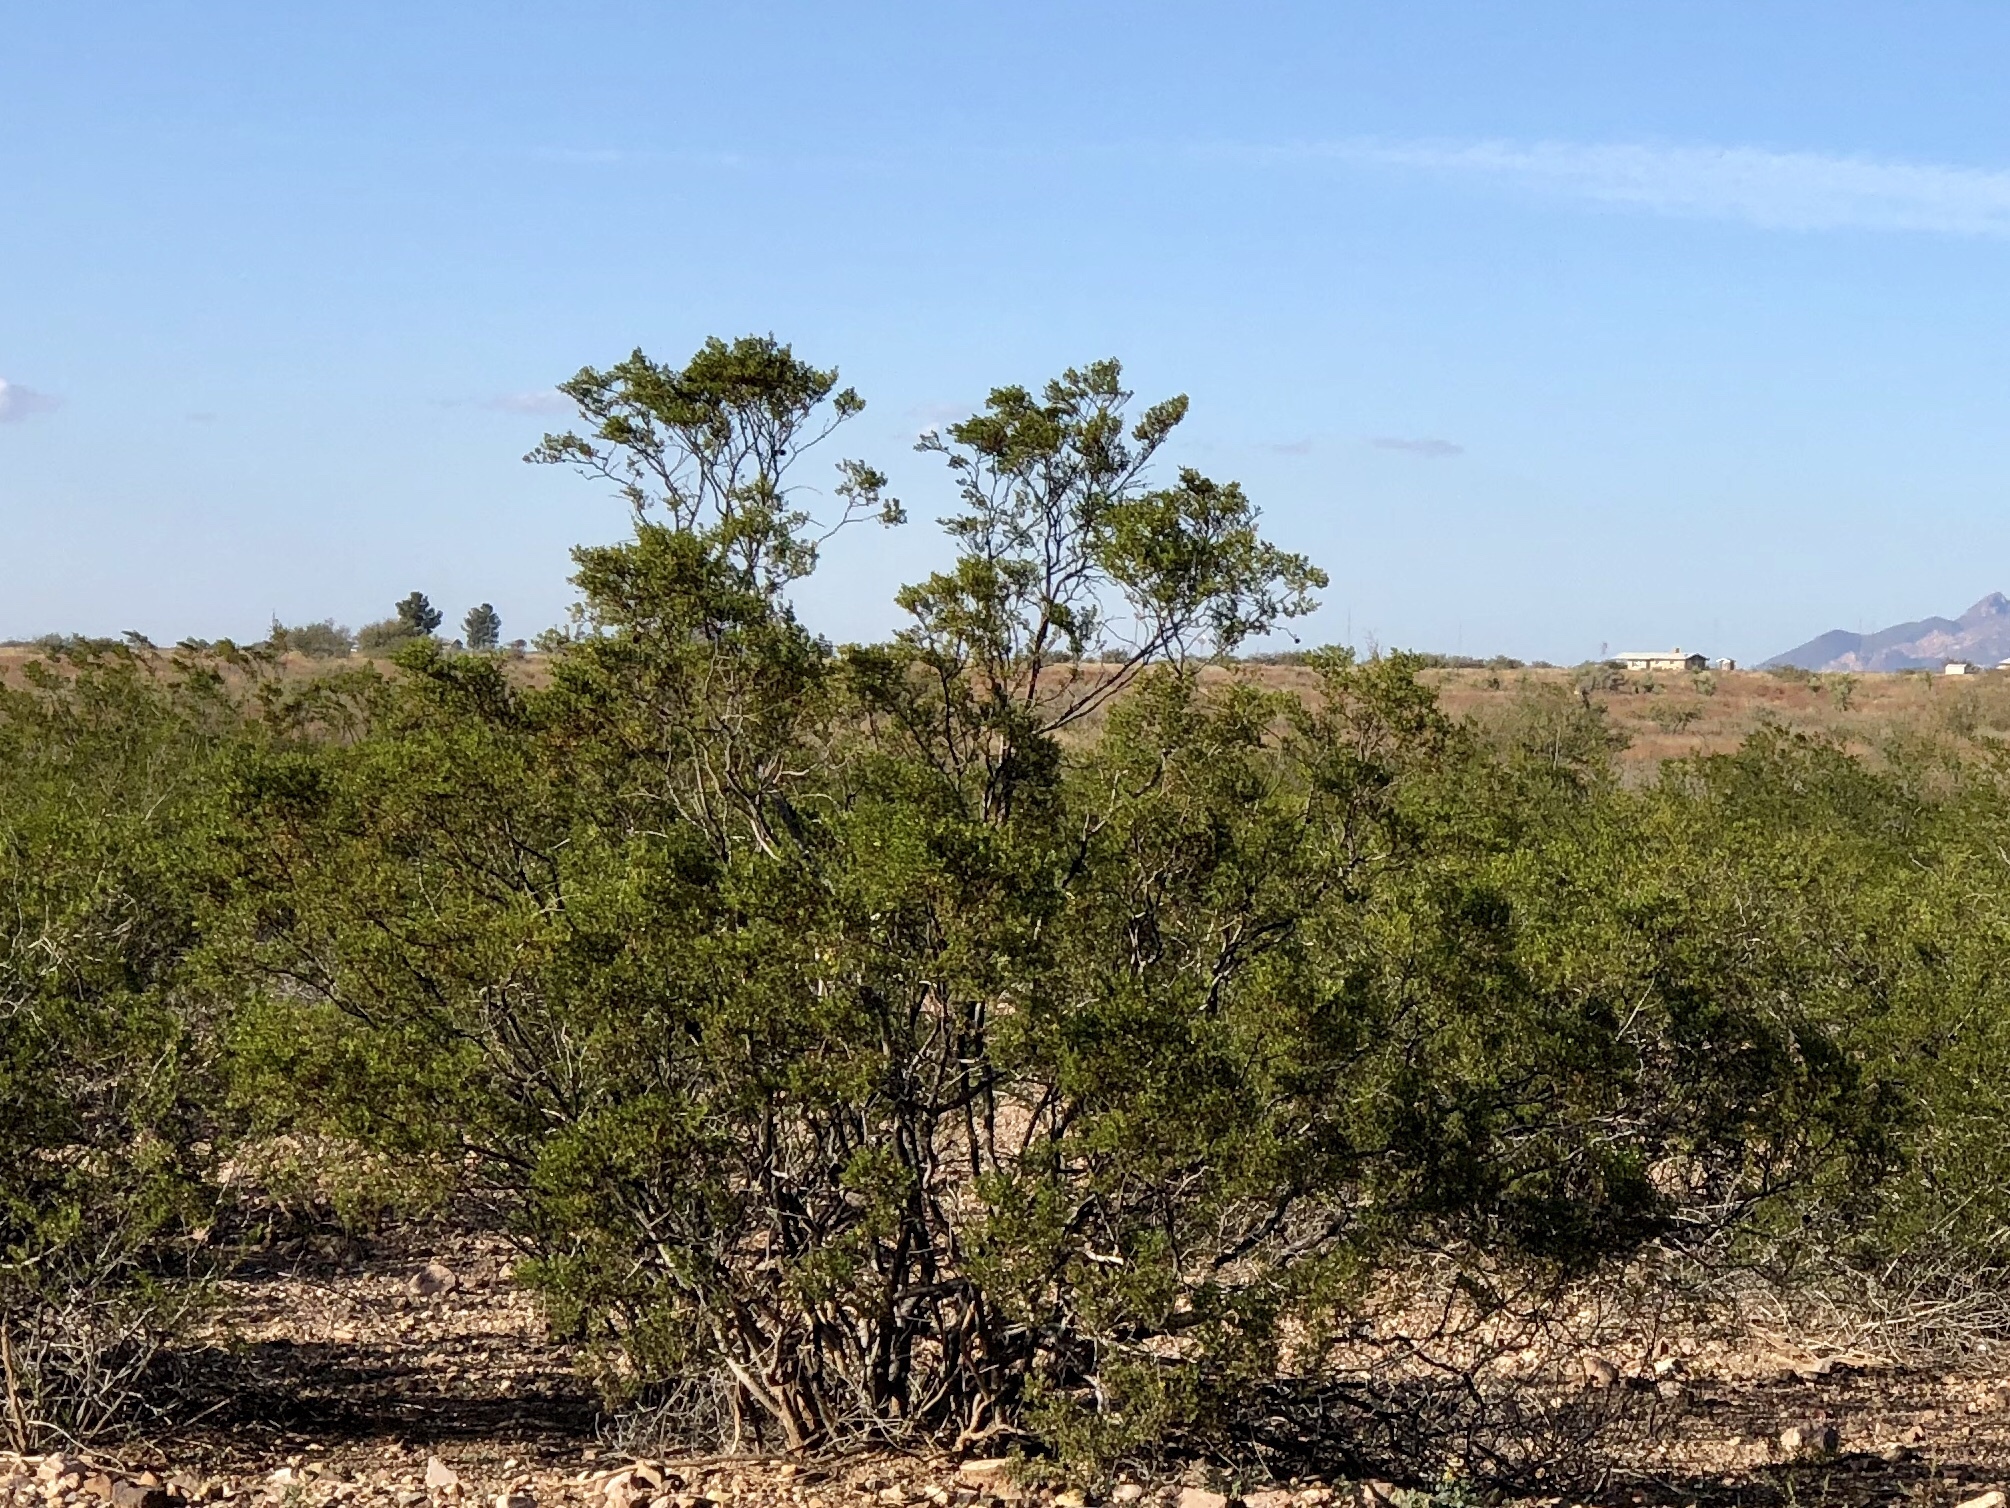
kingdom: Plantae
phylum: Tracheophyta
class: Magnoliopsida
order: Zygophyllales
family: Zygophyllaceae
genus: Larrea
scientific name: Larrea tridentata
